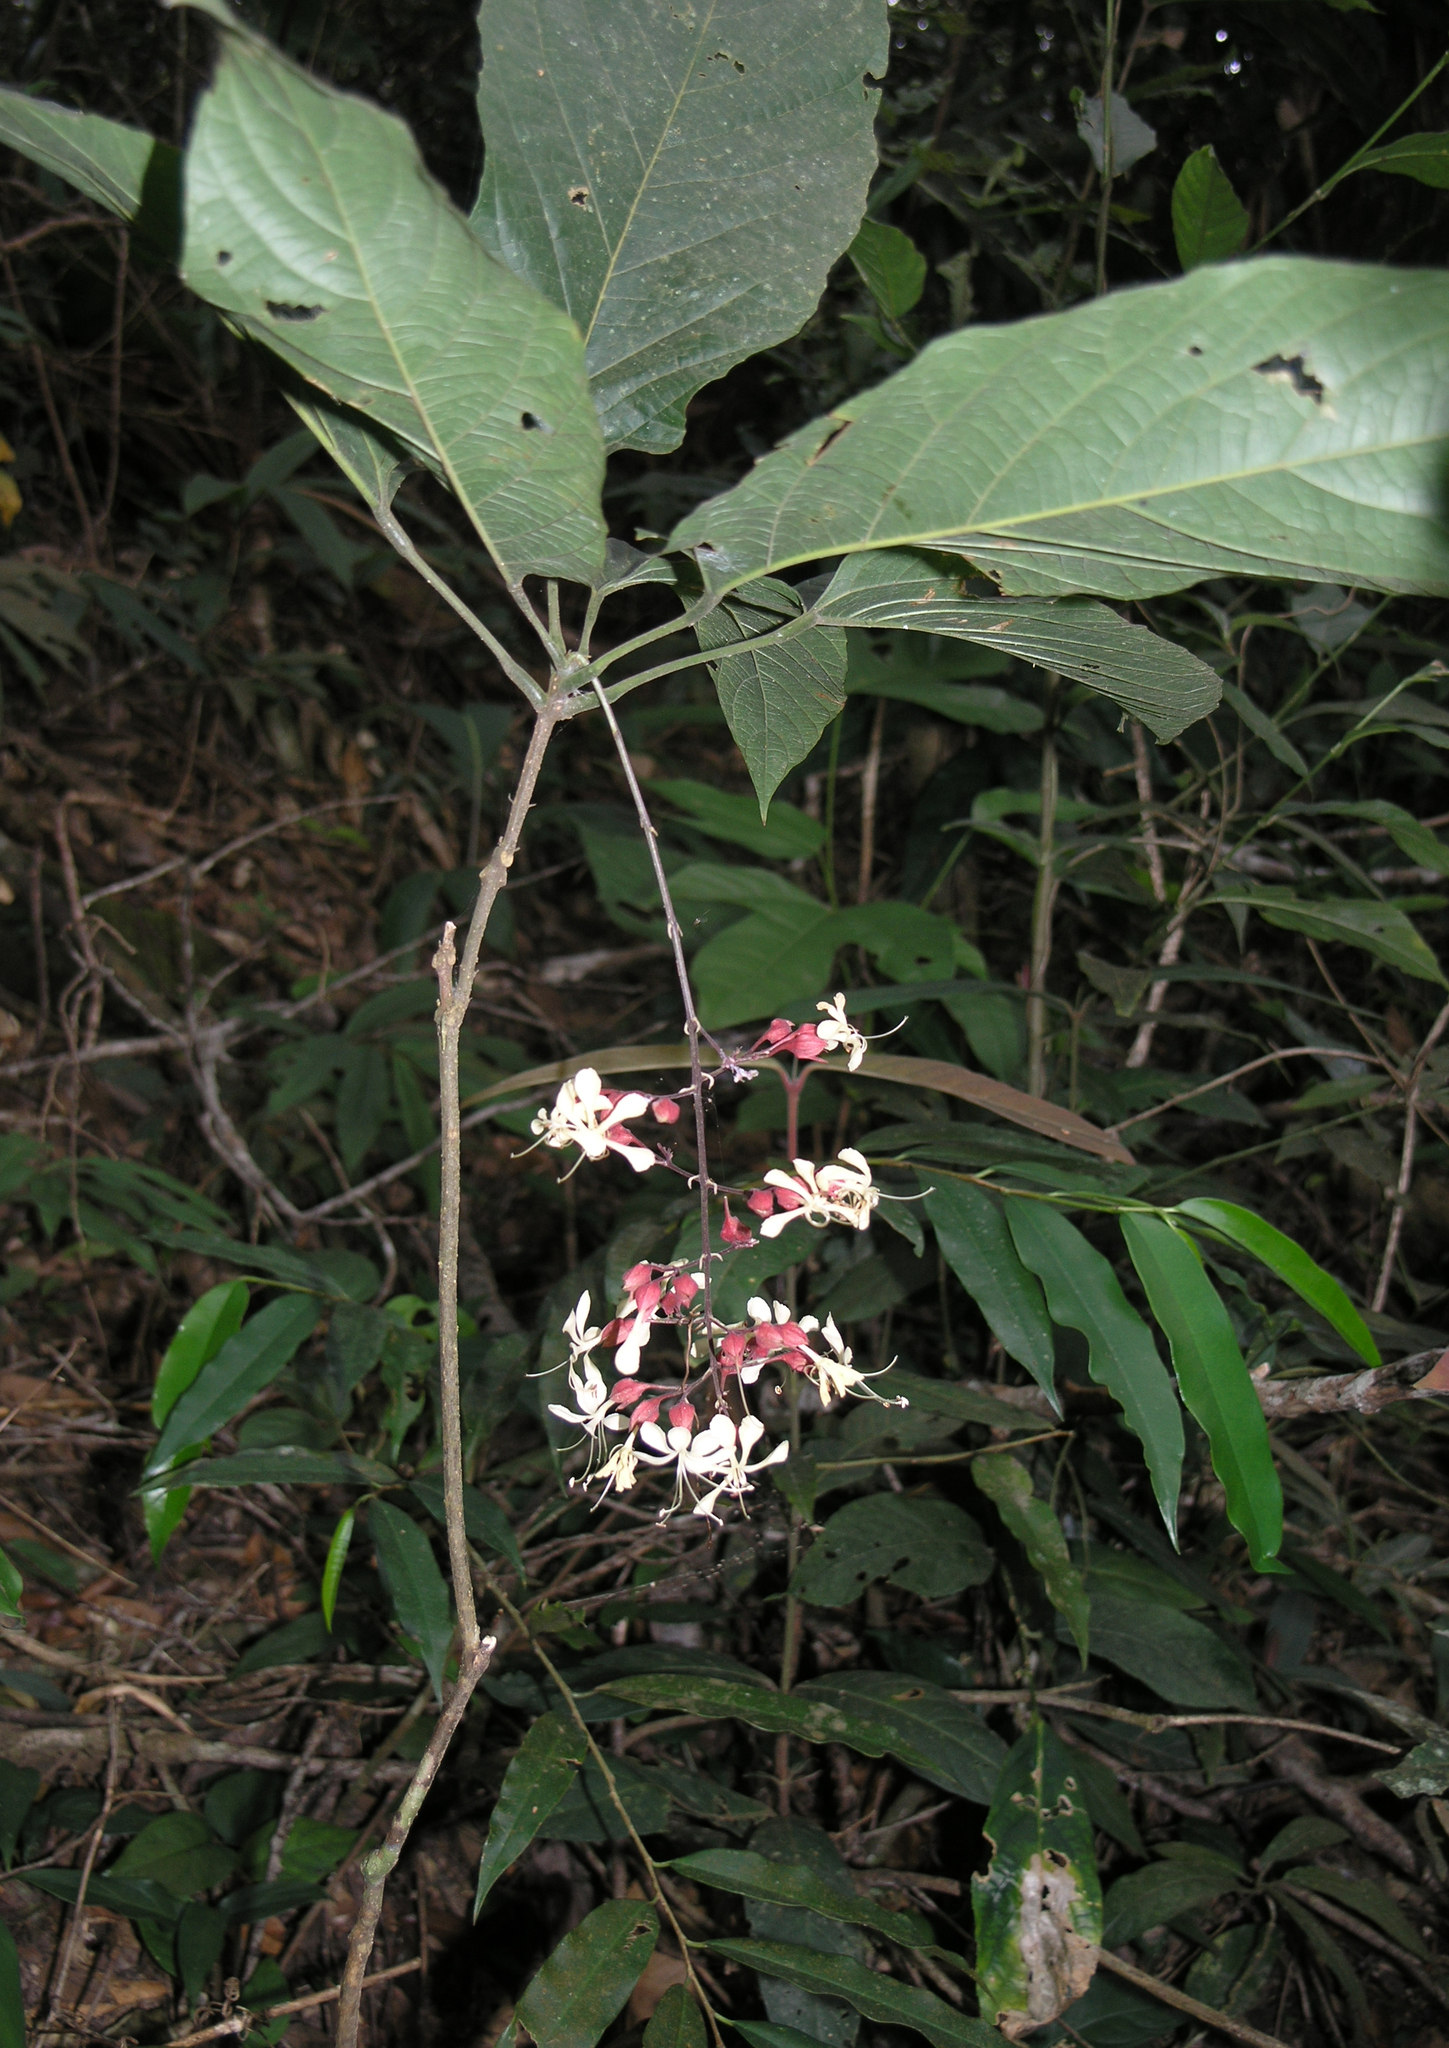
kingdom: Plantae
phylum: Tracheophyta
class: Magnoliopsida
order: Lamiales
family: Lamiaceae
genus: Clerodendrum
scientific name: Clerodendrum schmidtii
